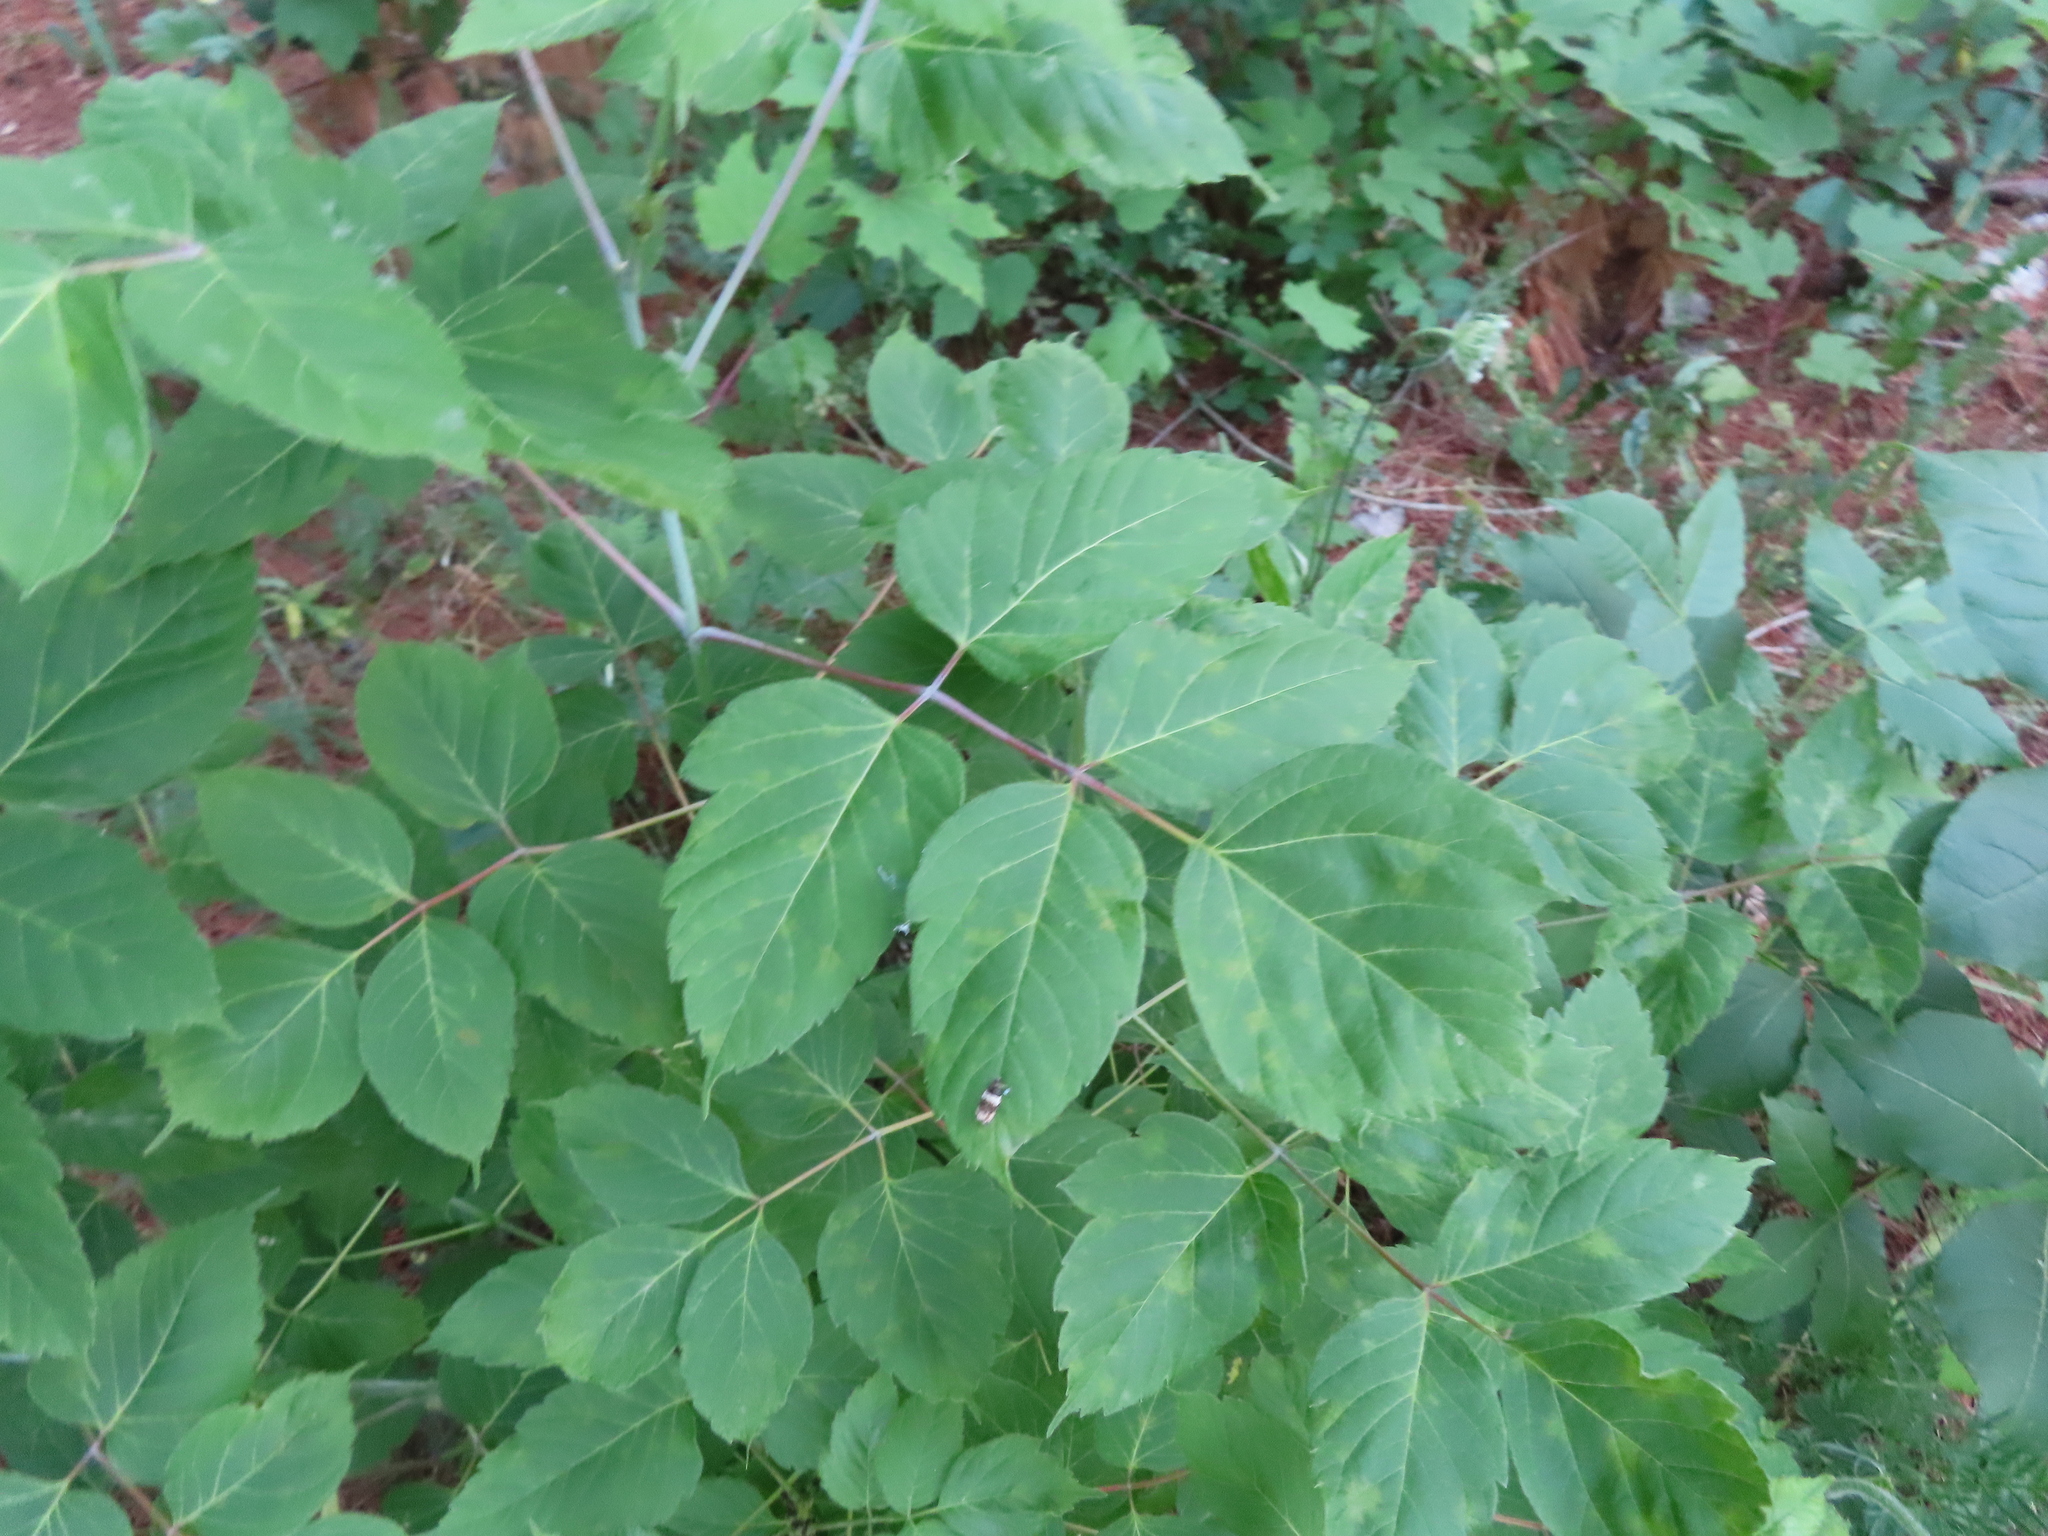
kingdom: Plantae
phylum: Tracheophyta
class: Magnoliopsida
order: Sapindales
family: Sapindaceae
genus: Acer
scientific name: Acer negundo
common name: Ashleaf maple
